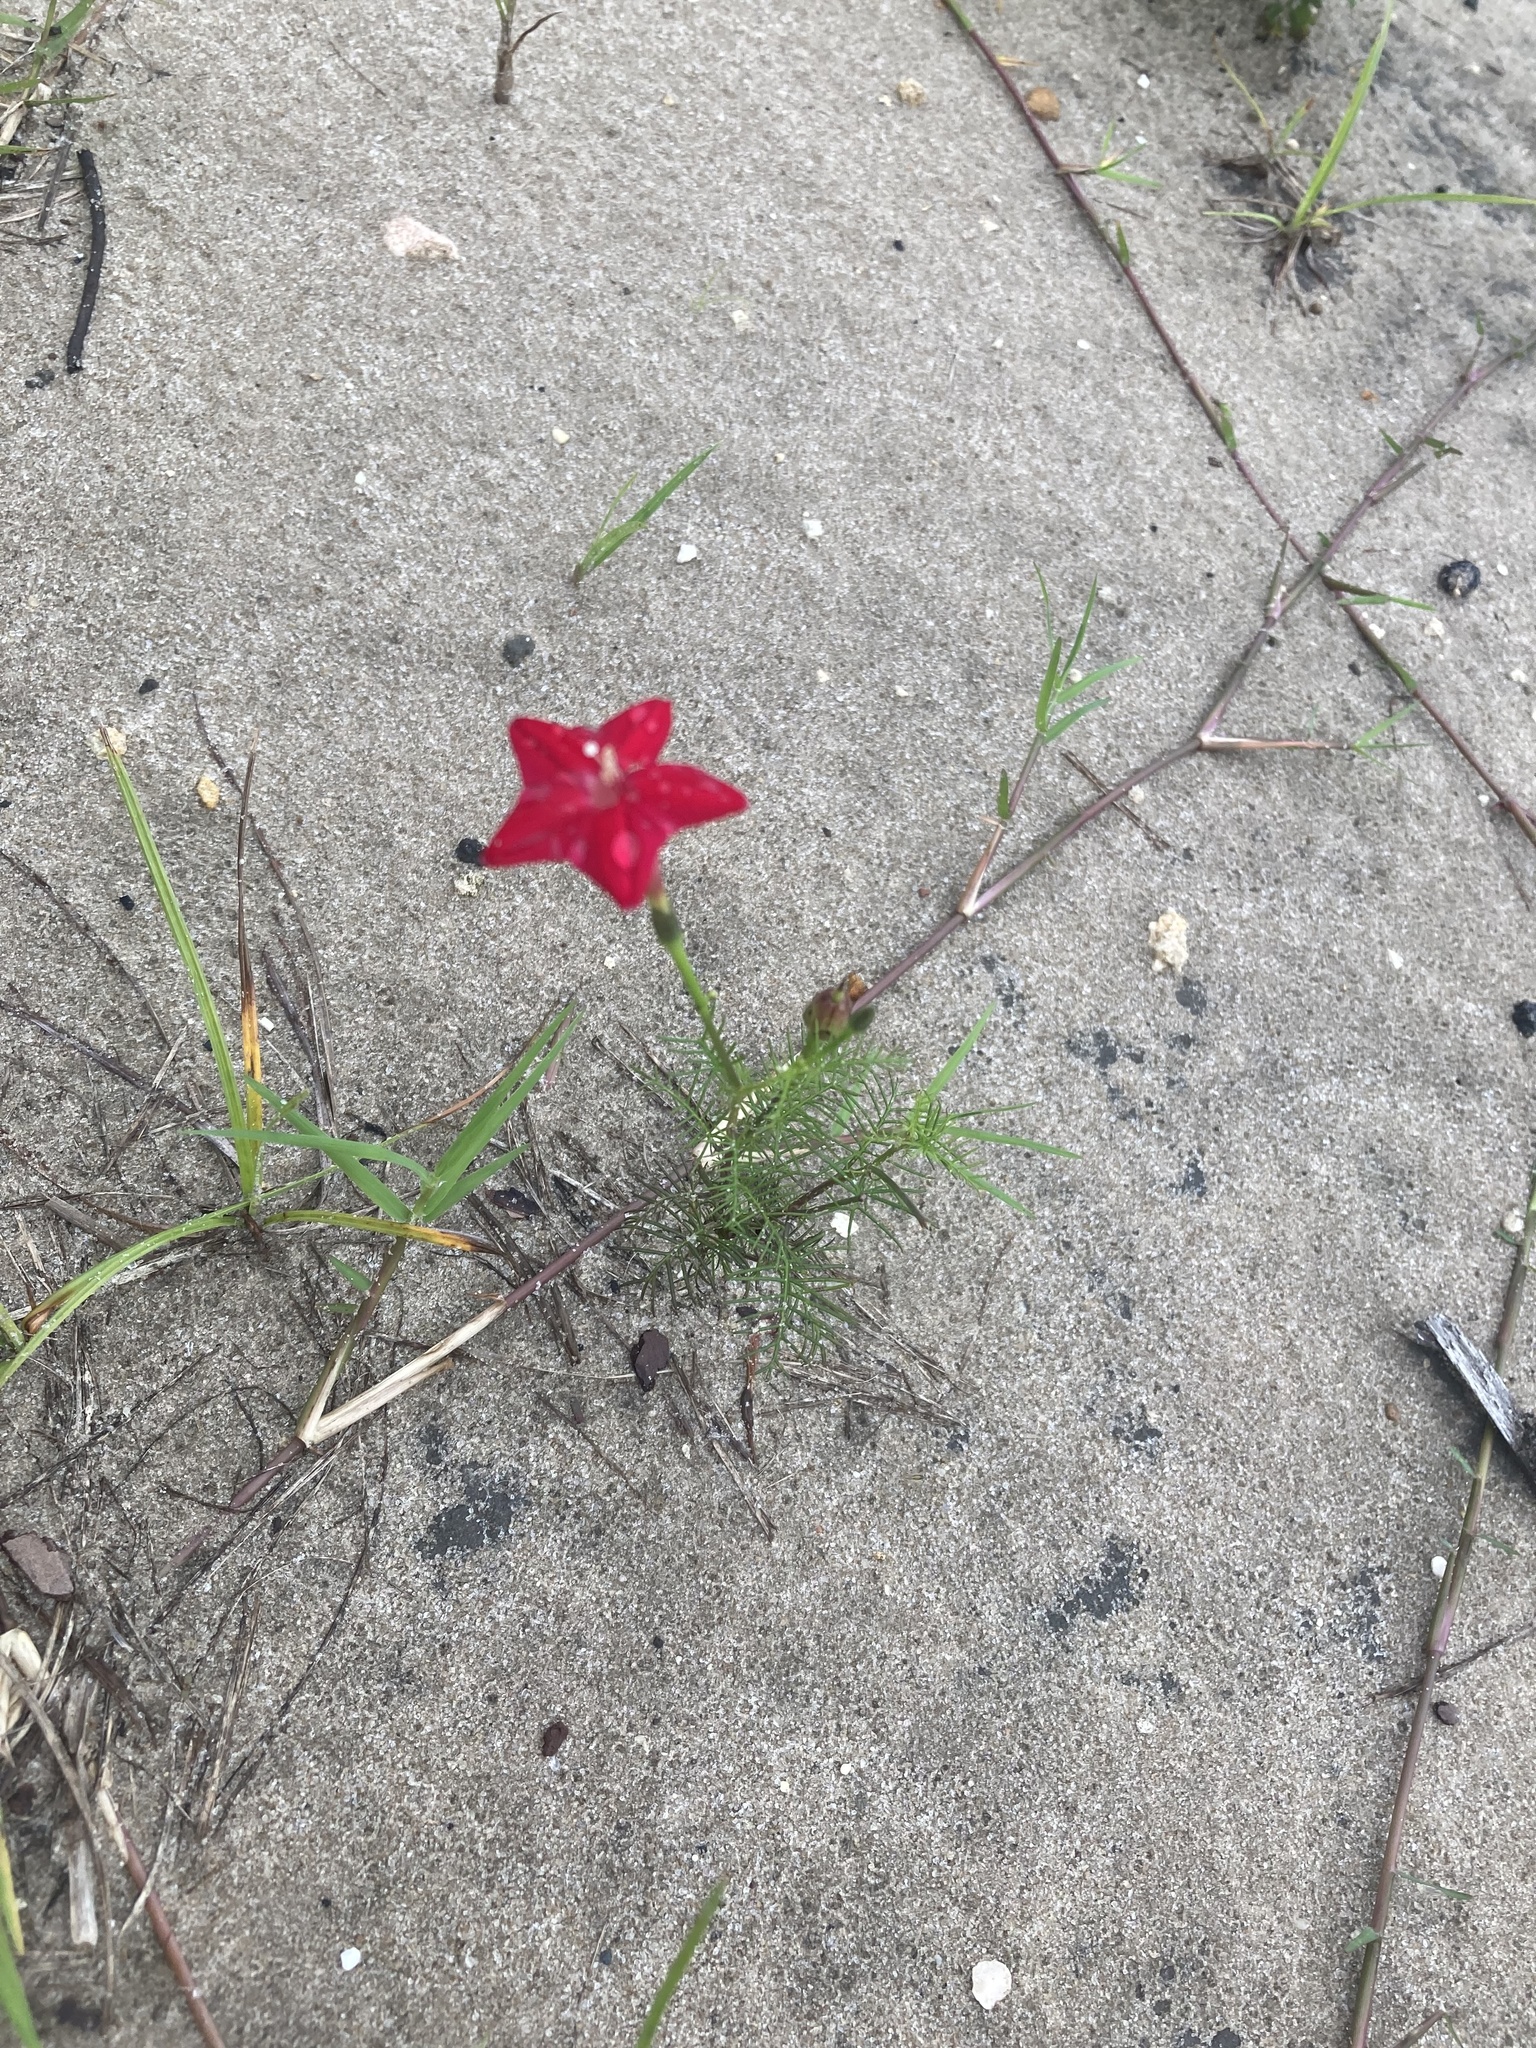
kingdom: Plantae
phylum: Tracheophyta
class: Magnoliopsida
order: Solanales
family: Convolvulaceae
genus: Ipomoea
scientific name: Ipomoea quamoclit
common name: Cypress vine
